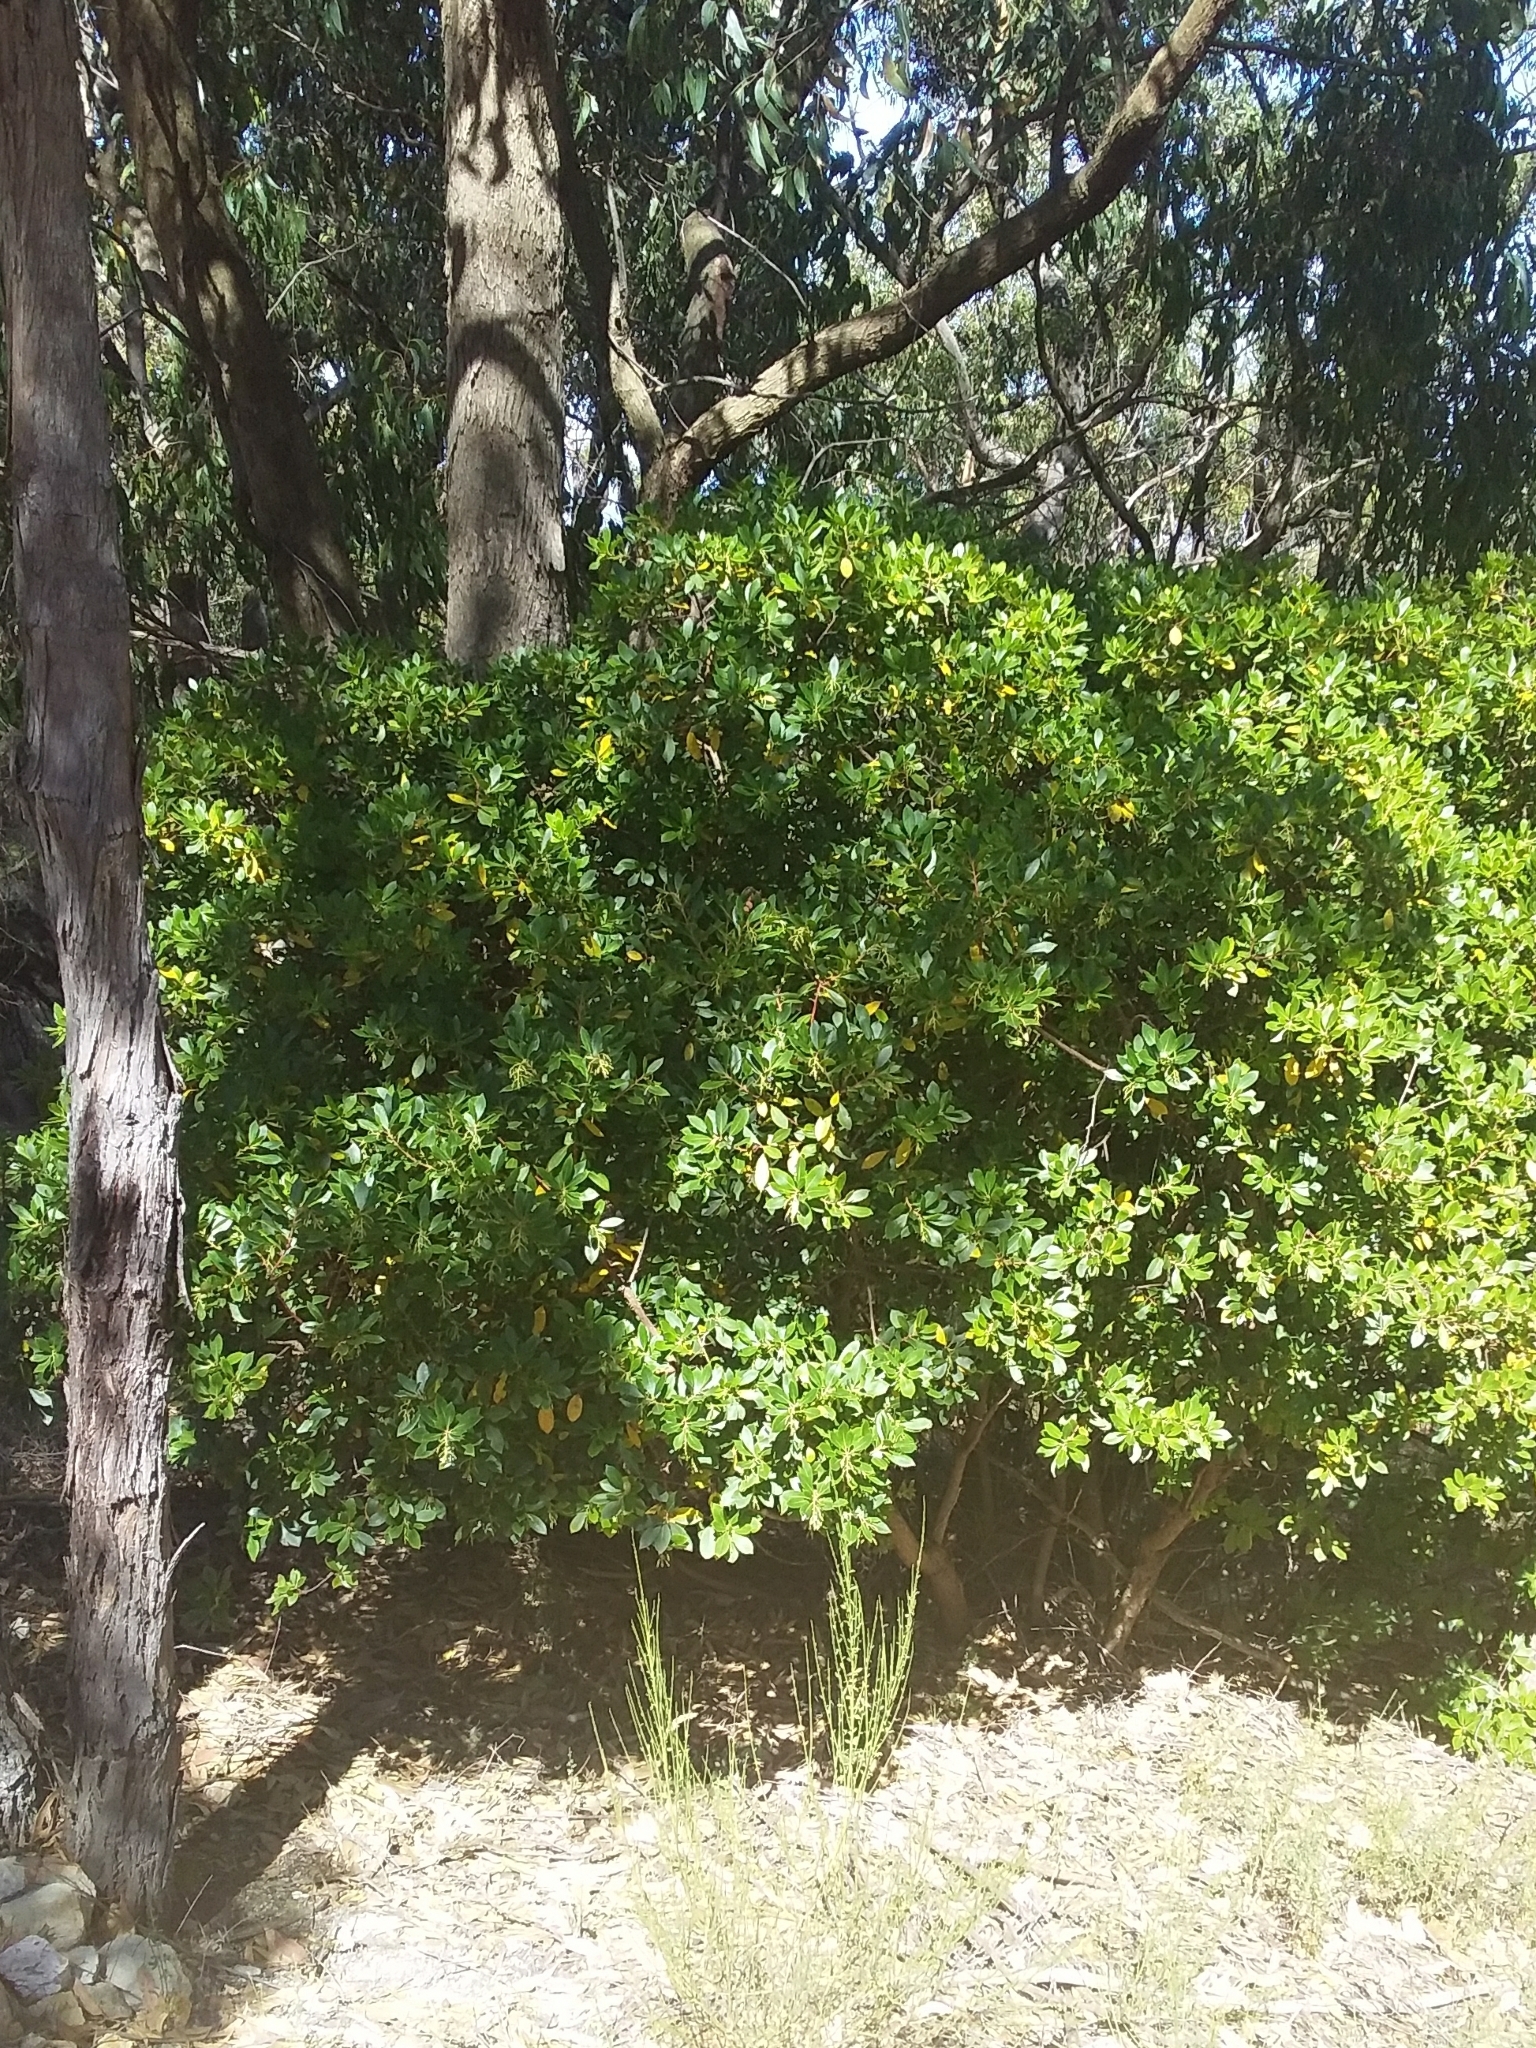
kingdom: Plantae
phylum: Tracheophyta
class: Magnoliopsida
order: Rosales
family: Rhamnaceae
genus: Rhamnus
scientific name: Rhamnus alaternus
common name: Mediterranean buckthorn
